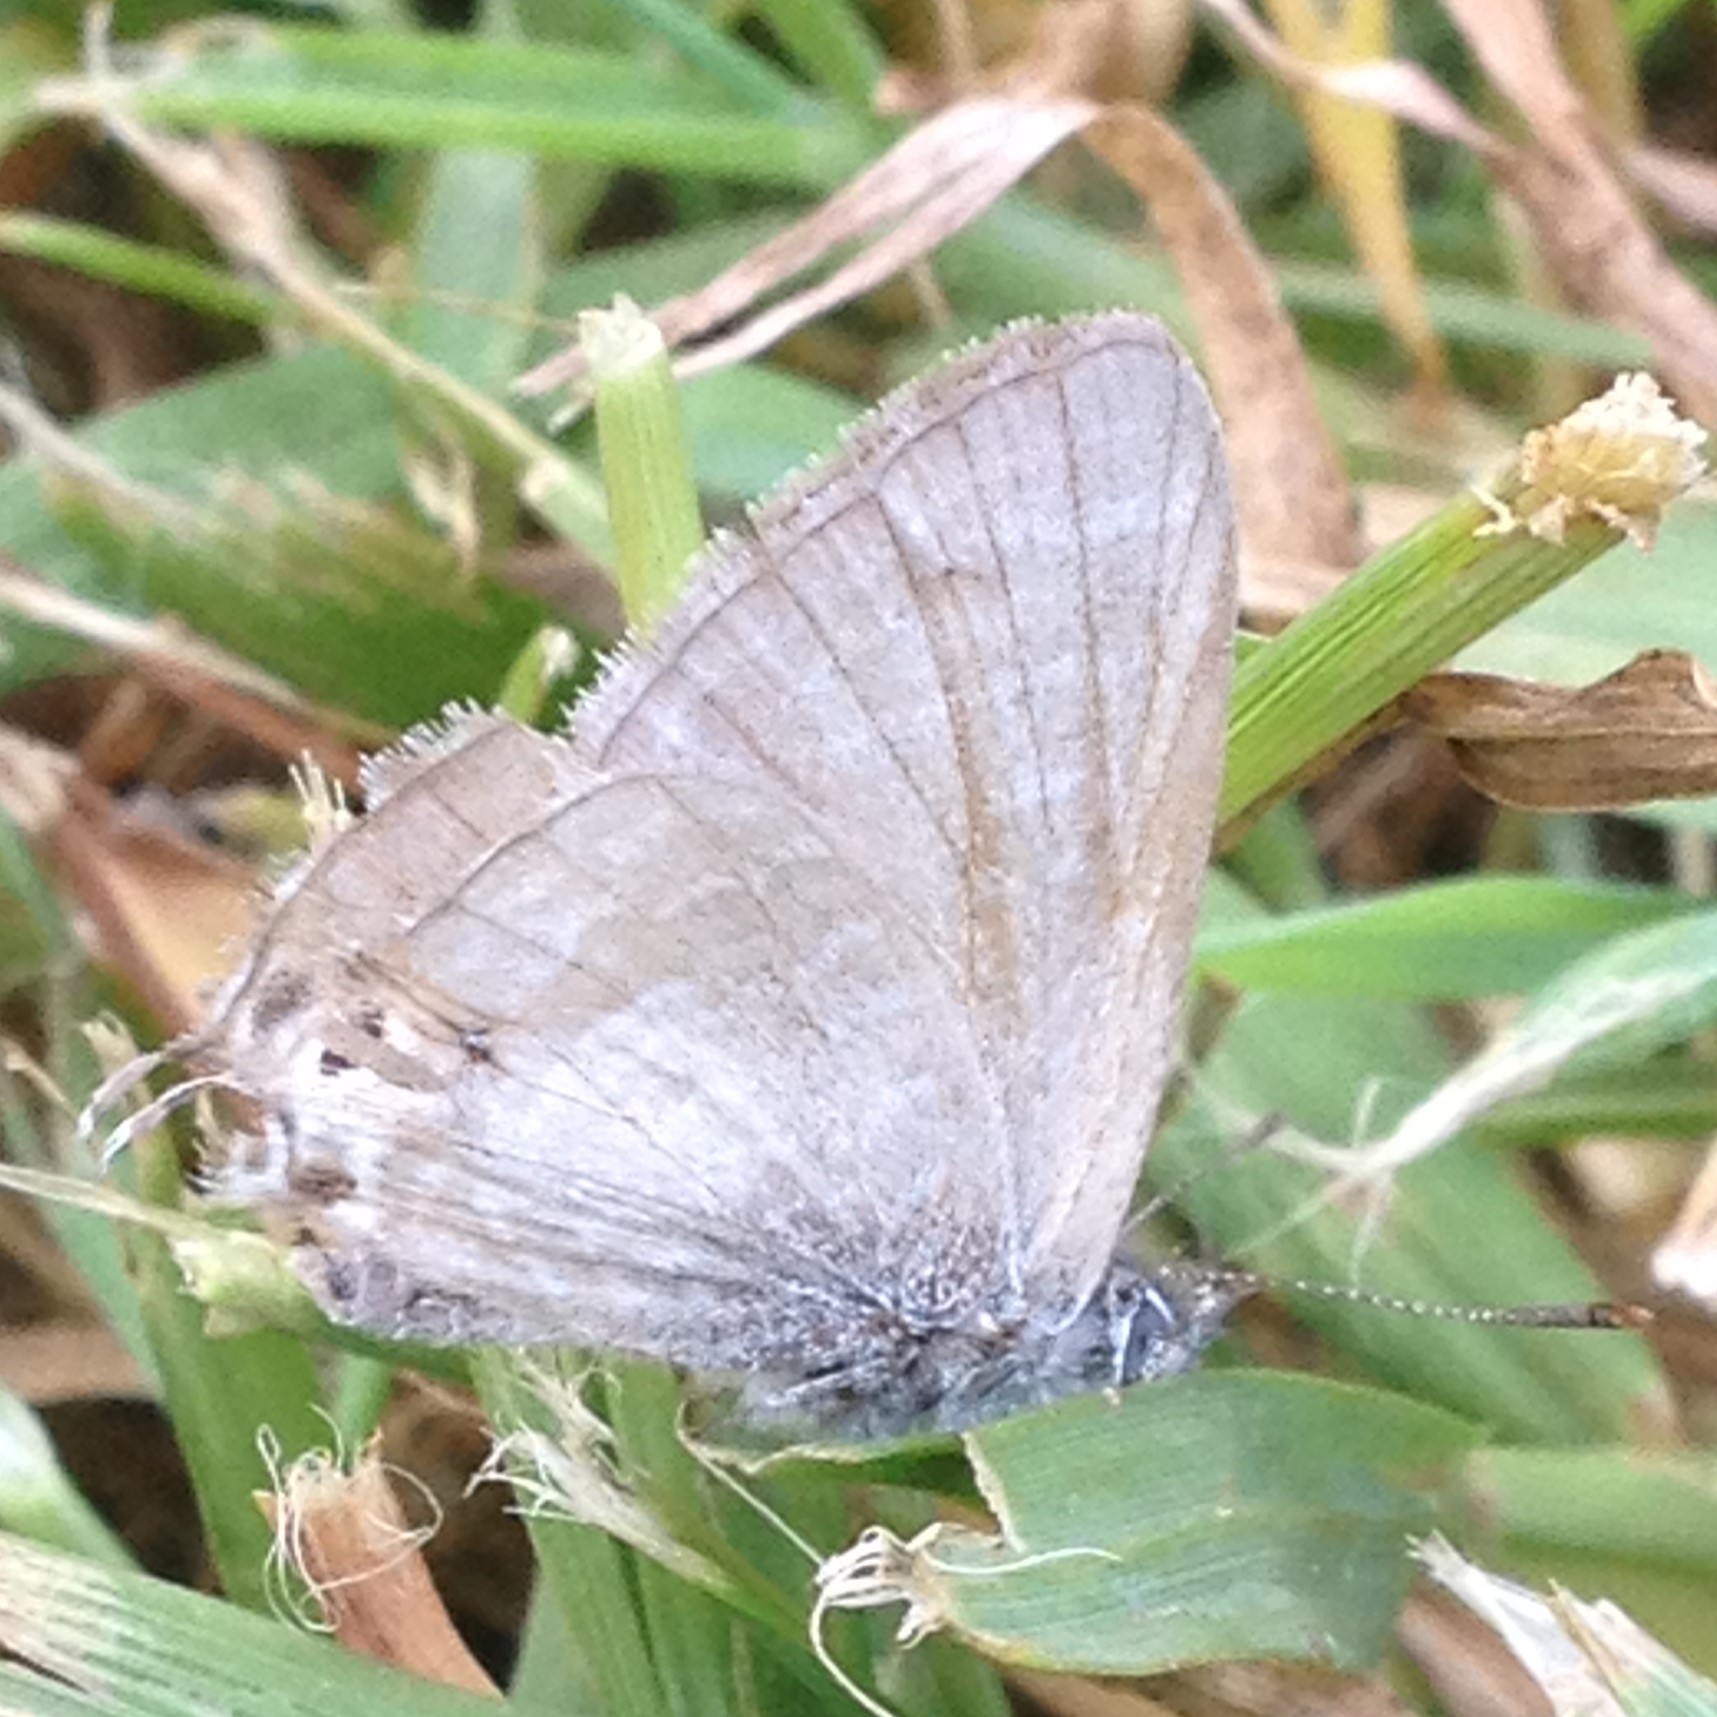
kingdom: Animalia
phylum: Arthropoda
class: Insecta
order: Lepidoptera
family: Lycaenidae
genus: Catopyrops
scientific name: Catopyrops florinda
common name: Speckled line-blue
